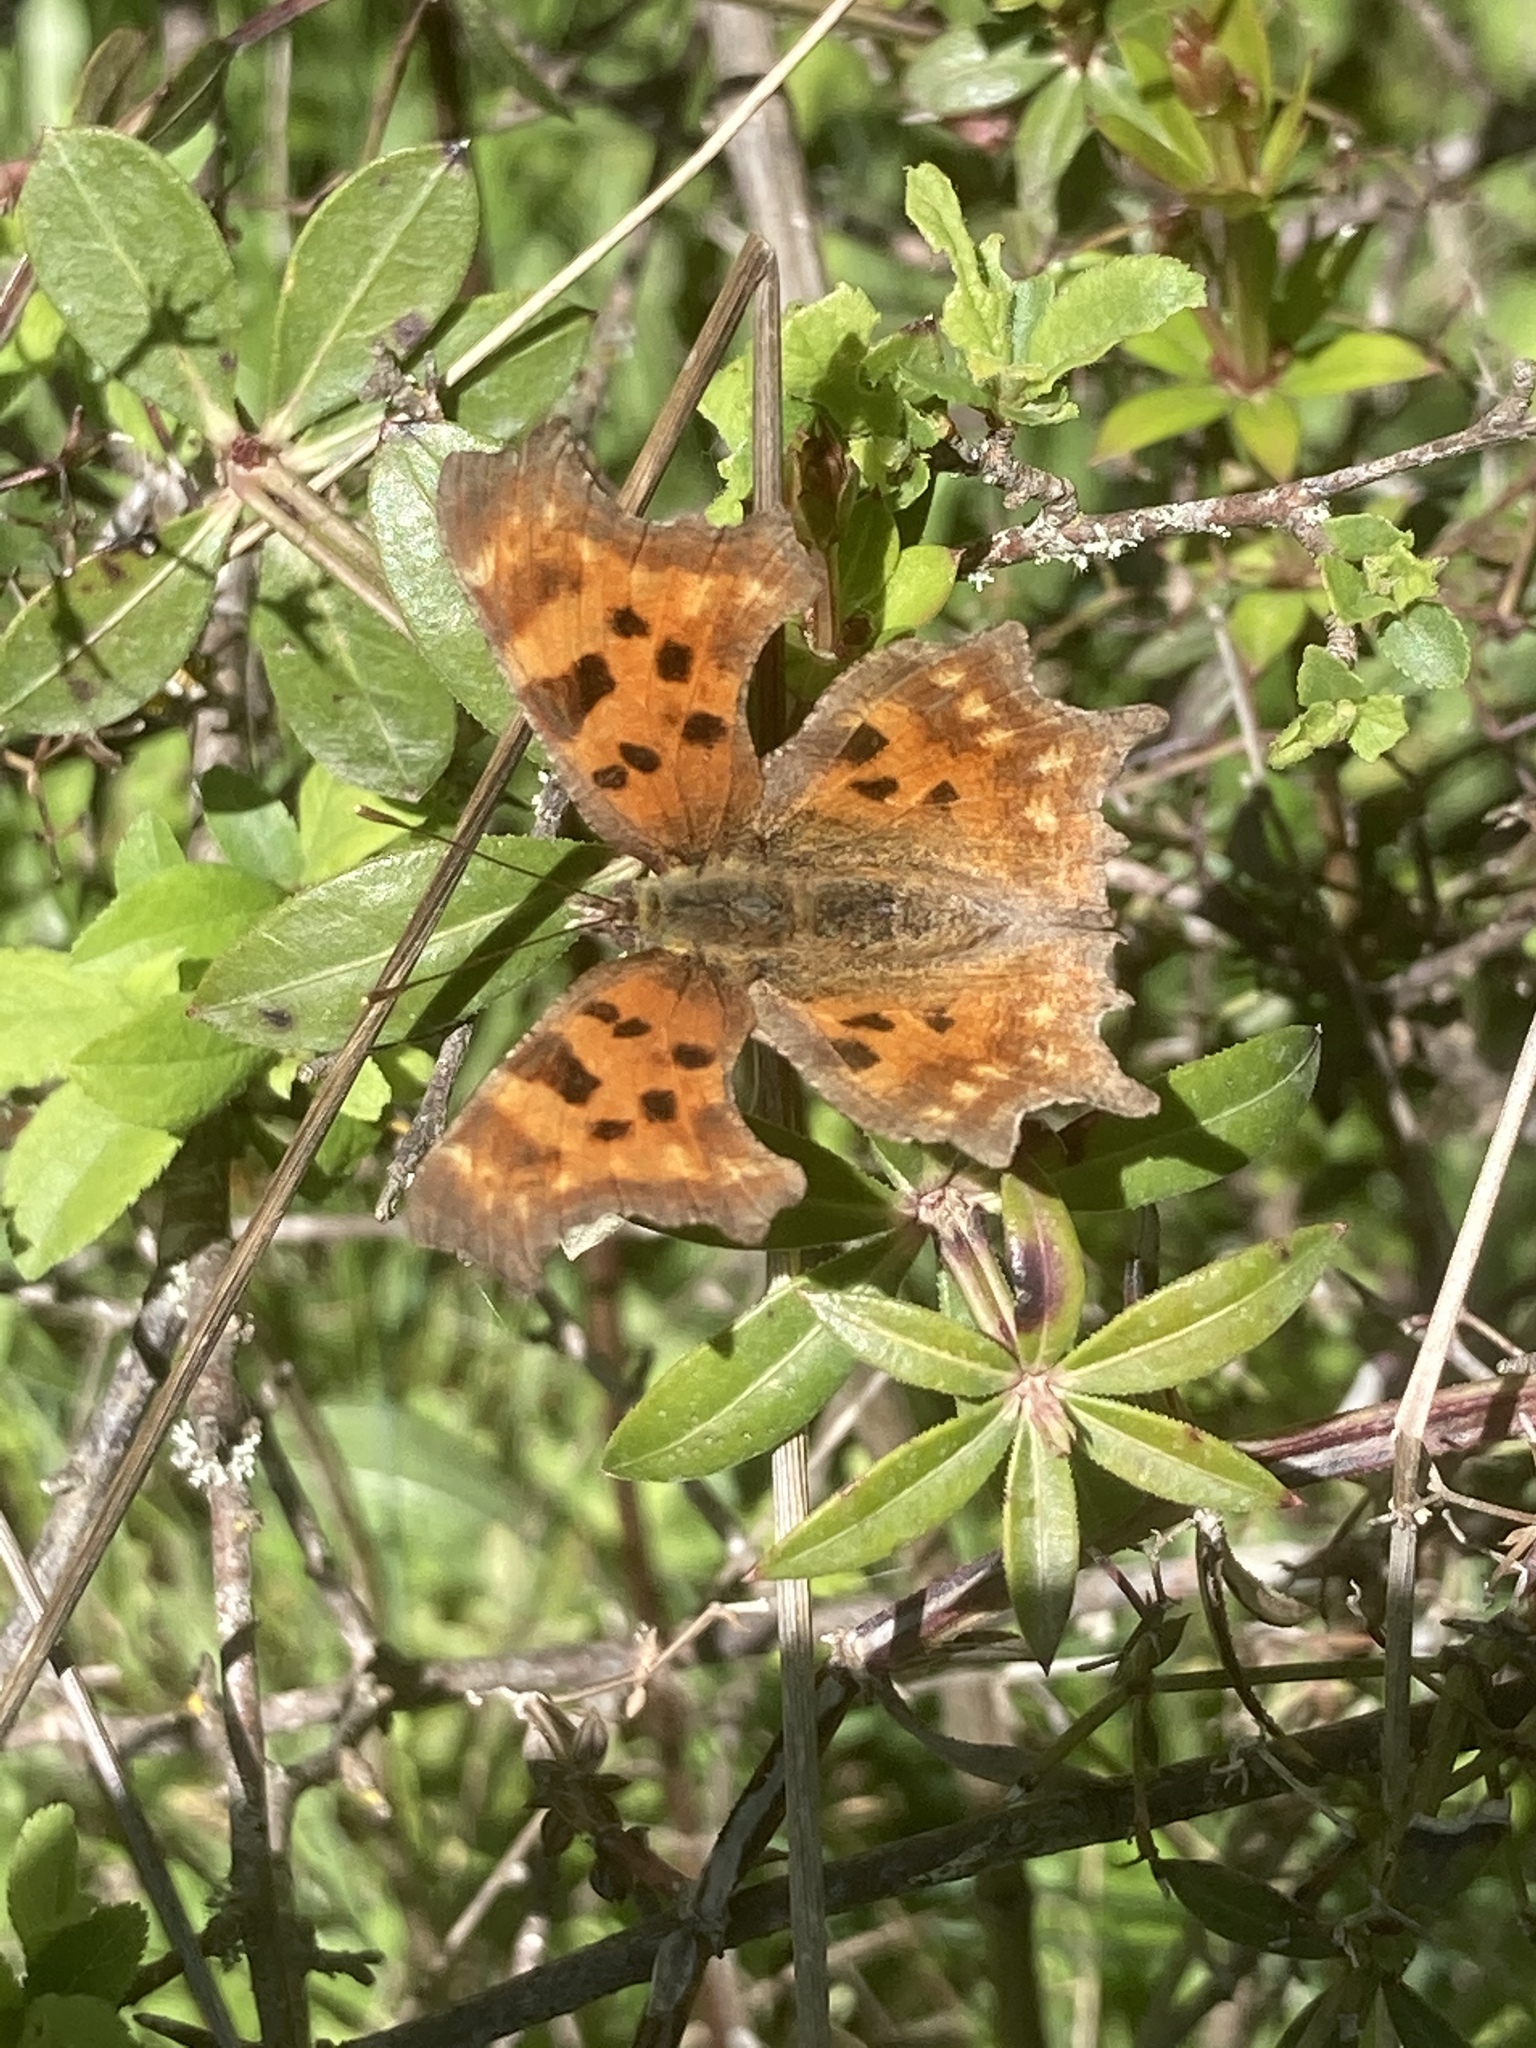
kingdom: Animalia
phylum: Arthropoda
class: Insecta
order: Lepidoptera
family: Nymphalidae
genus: Polygonia
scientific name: Polygonia c-album
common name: Comma
